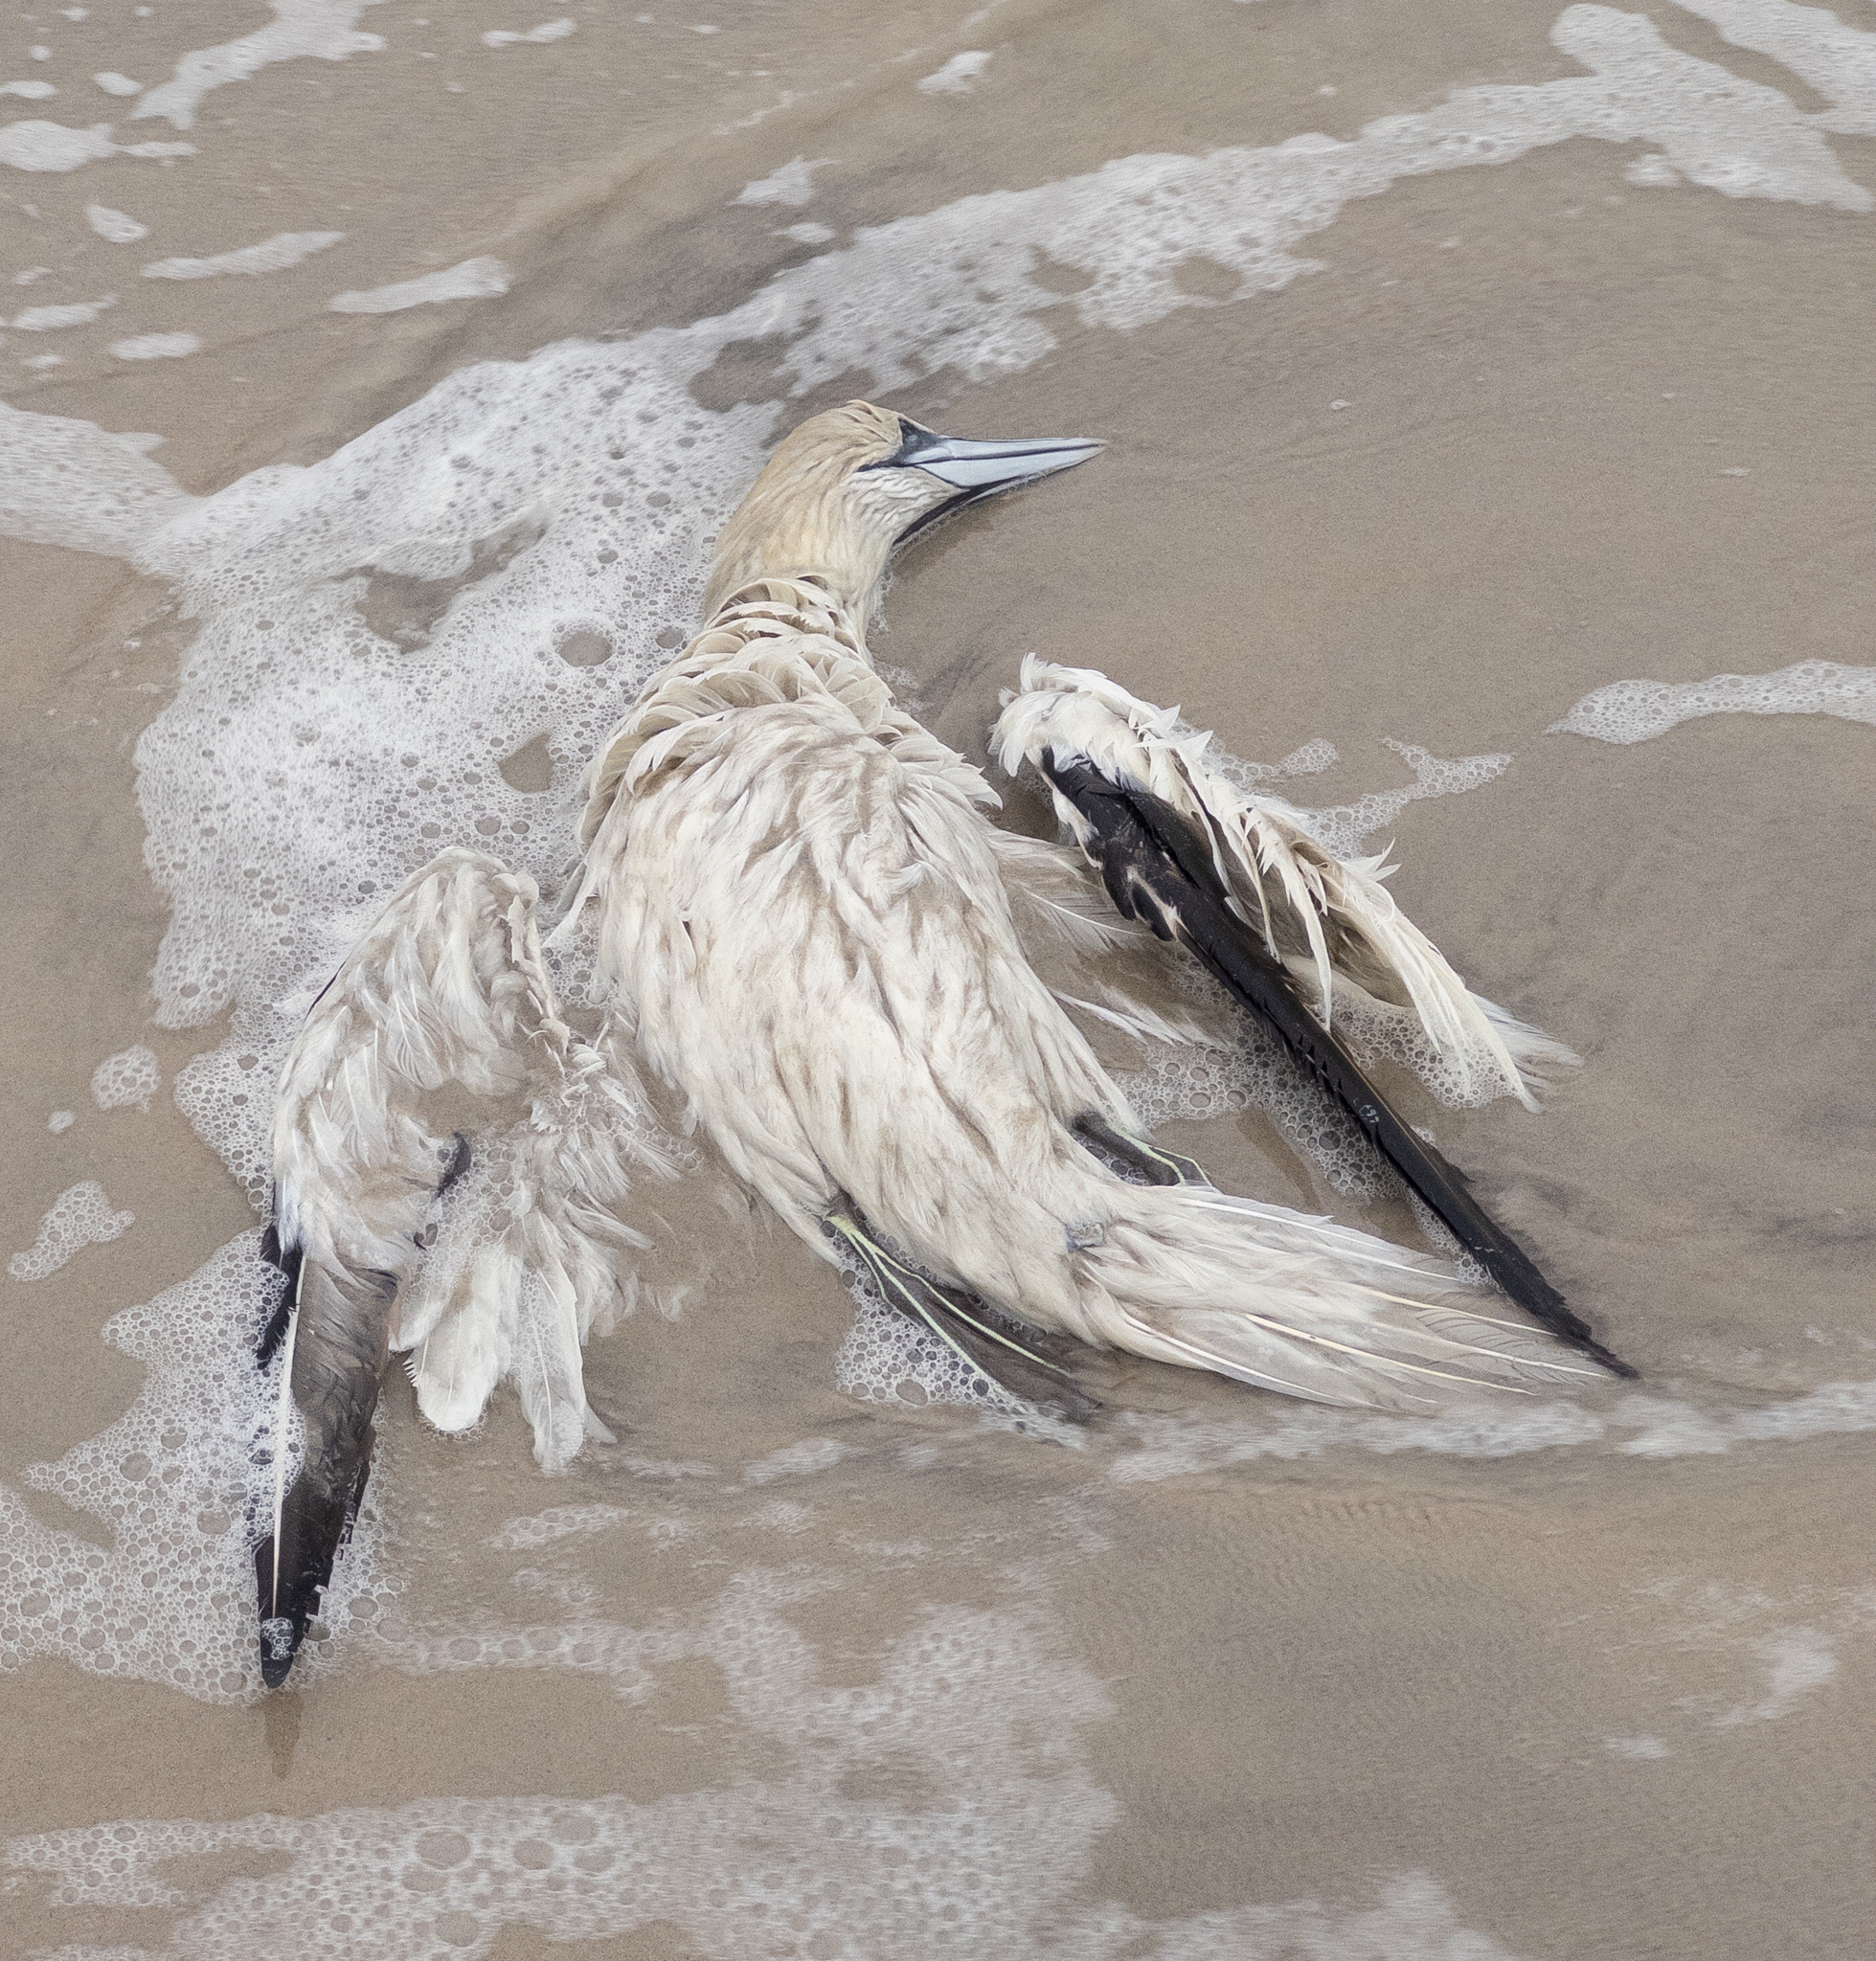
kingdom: Animalia
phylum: Chordata
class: Aves
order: Suliformes
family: Sulidae
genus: Morus
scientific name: Morus bassanus
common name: Northern gannet
